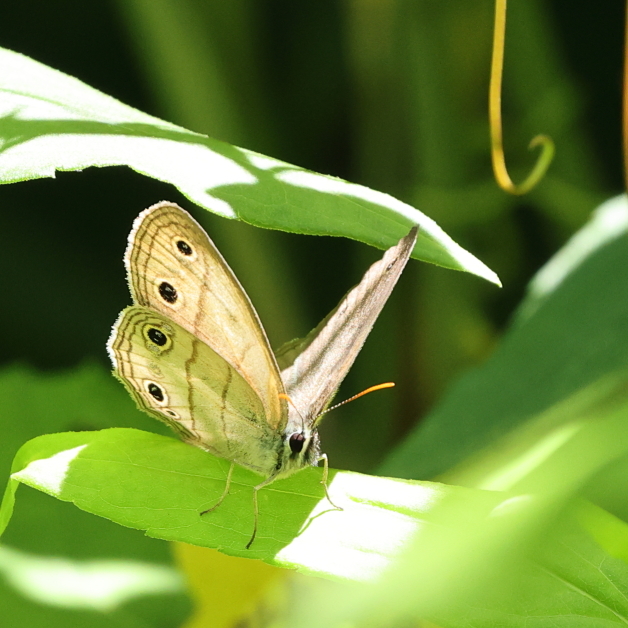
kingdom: Animalia
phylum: Arthropoda
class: Insecta
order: Lepidoptera
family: Nymphalidae
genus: Euptychia
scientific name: Euptychia cymela
